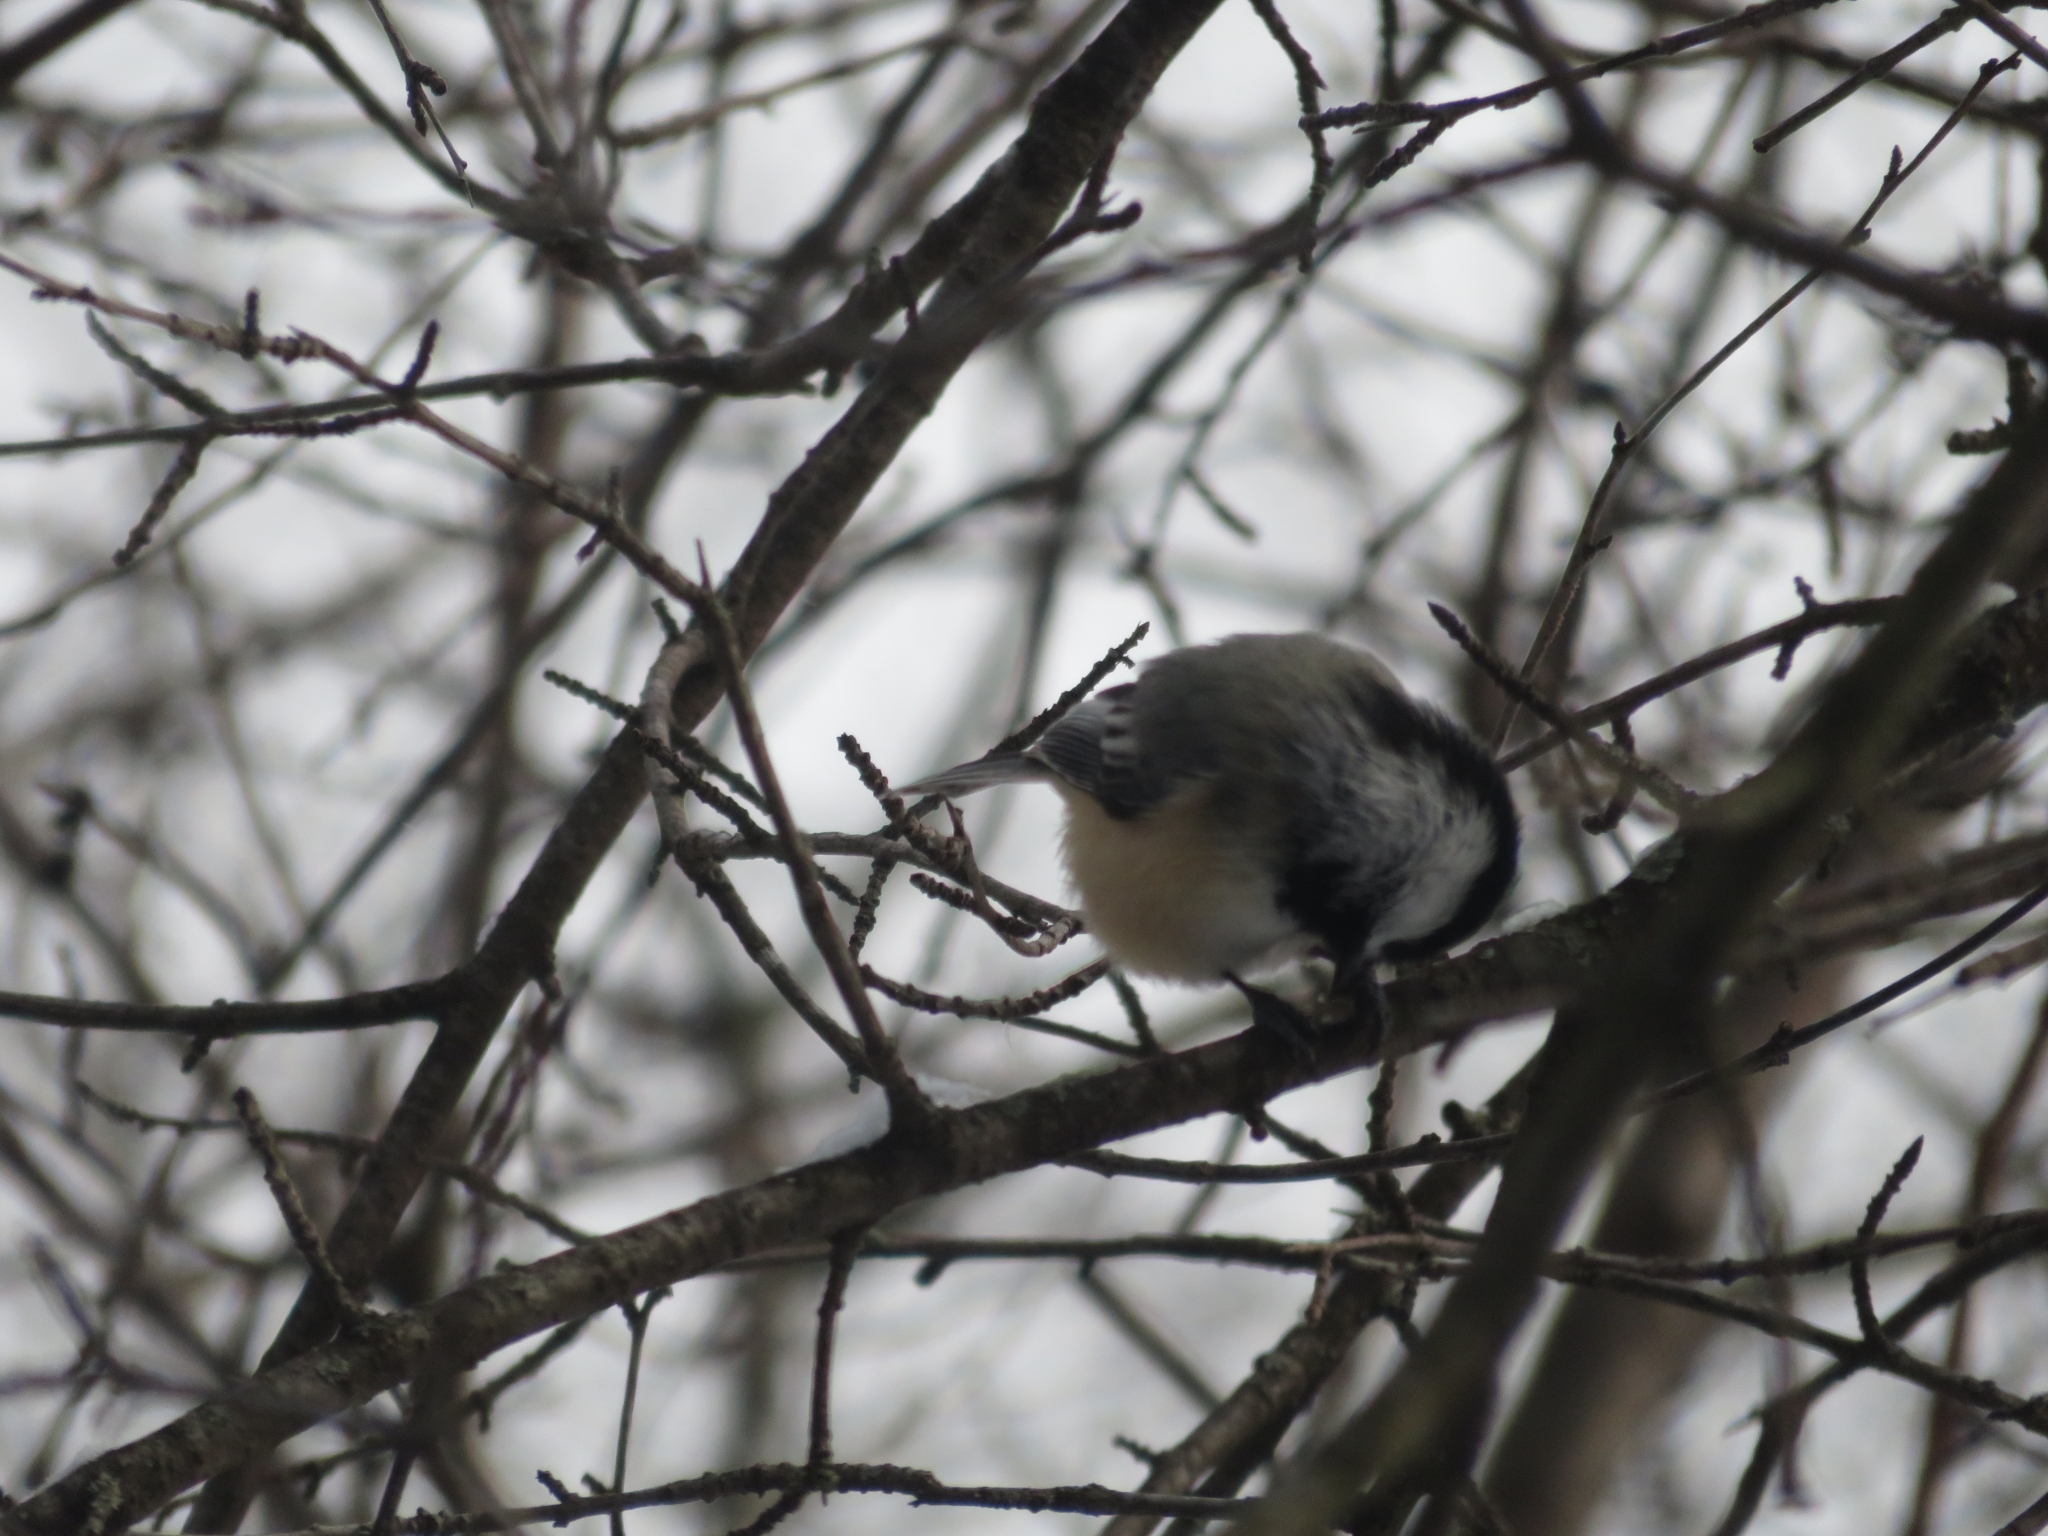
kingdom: Animalia
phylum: Chordata
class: Aves
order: Passeriformes
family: Paridae
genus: Poecile
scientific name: Poecile atricapillus
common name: Black-capped chickadee
